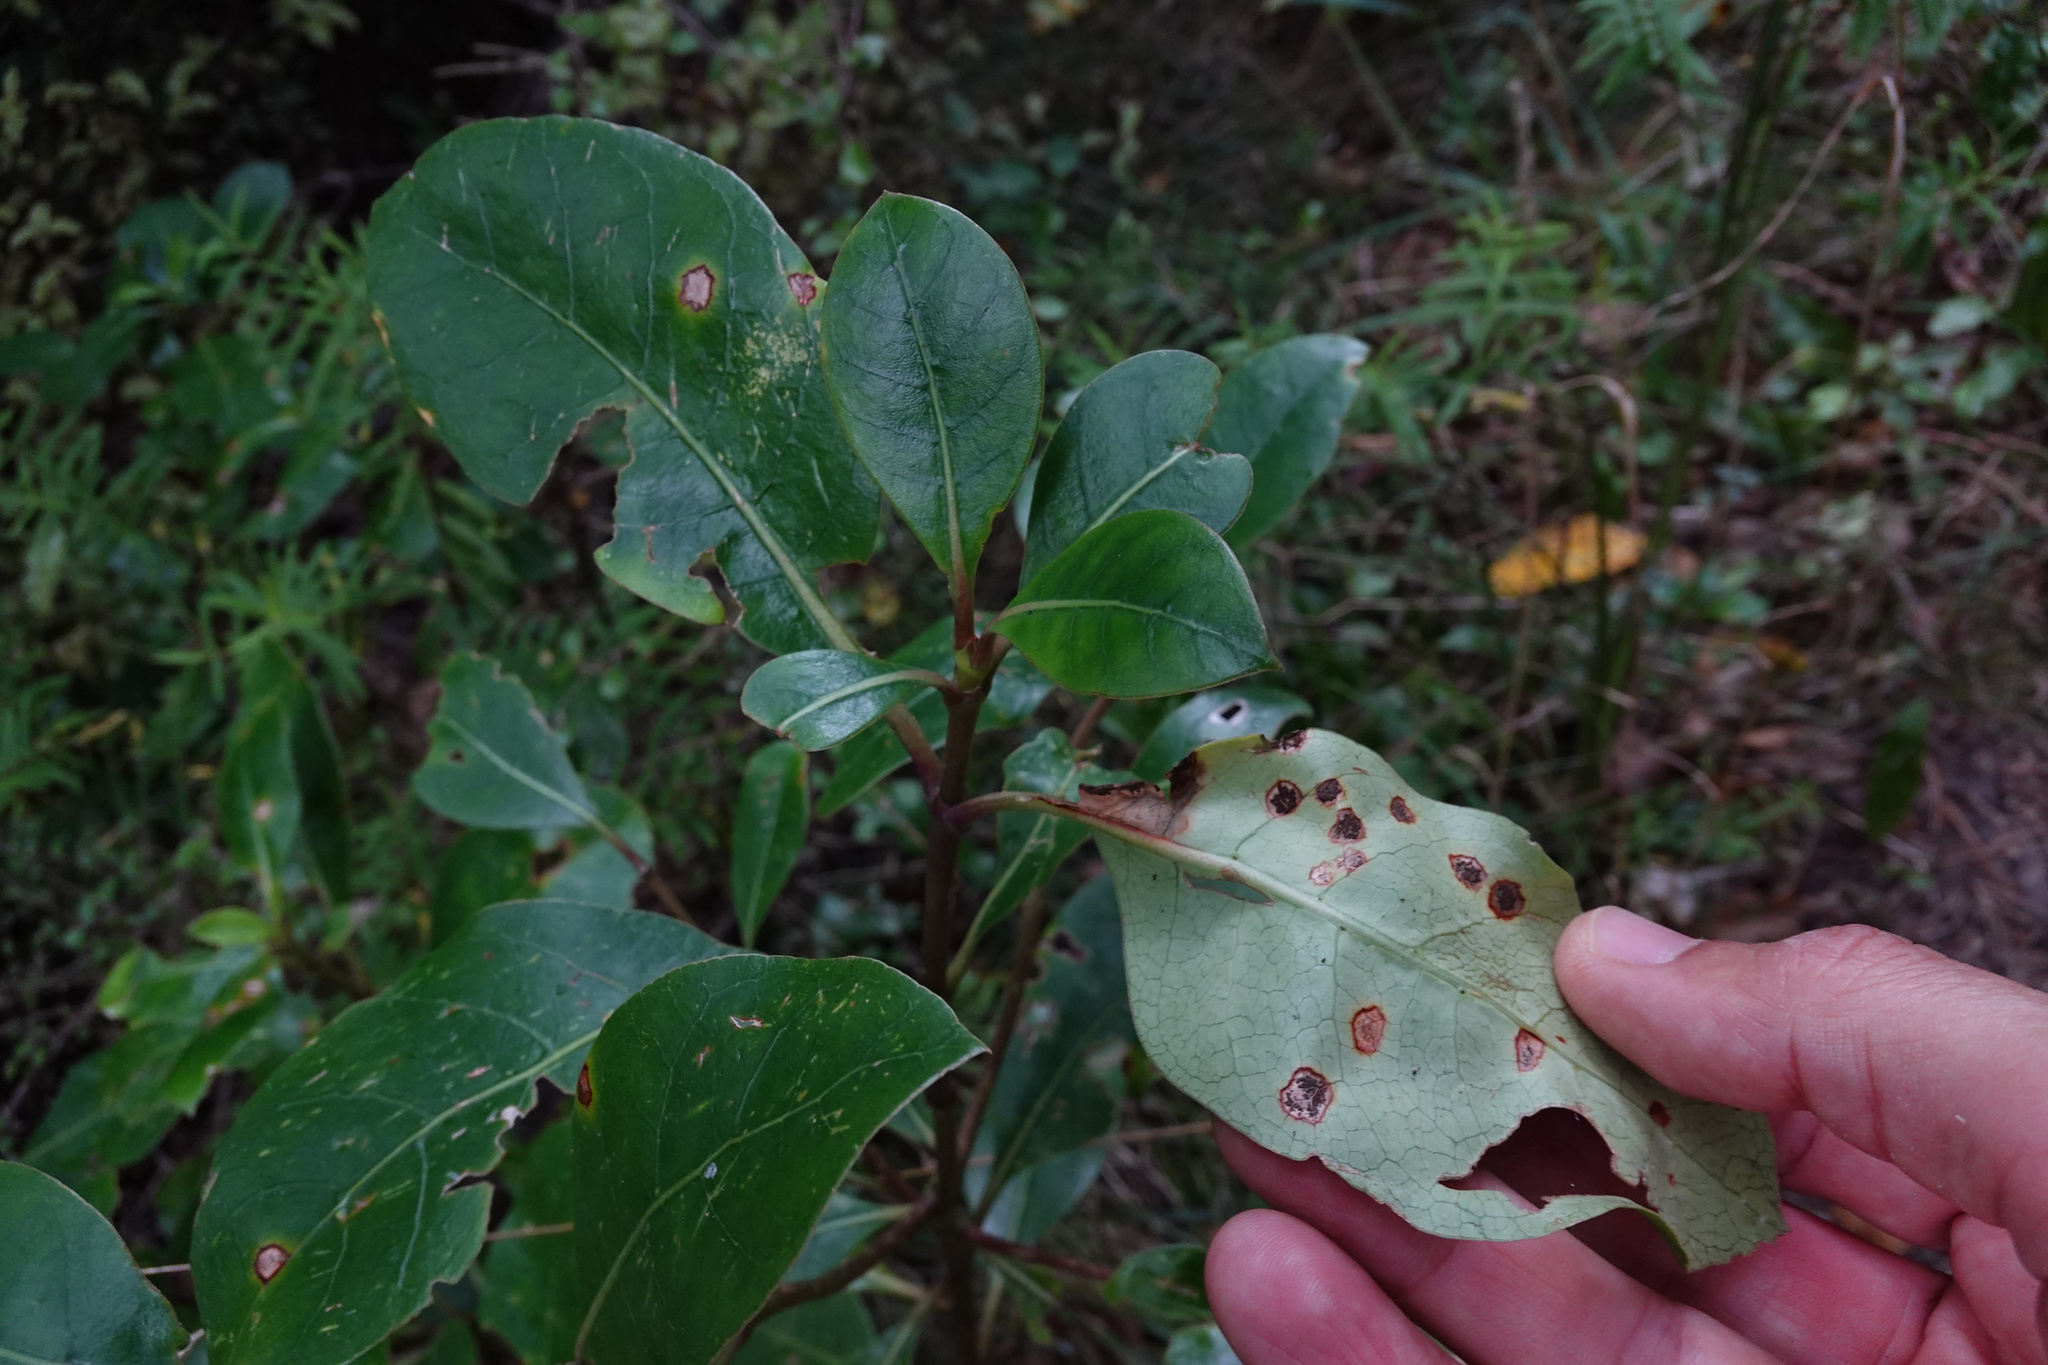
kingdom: Fungi
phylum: Basidiomycota
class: Pucciniomycetes
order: Pucciniales
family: Pucciniaceae
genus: Puccinia
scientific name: Puccinia coprosmae
